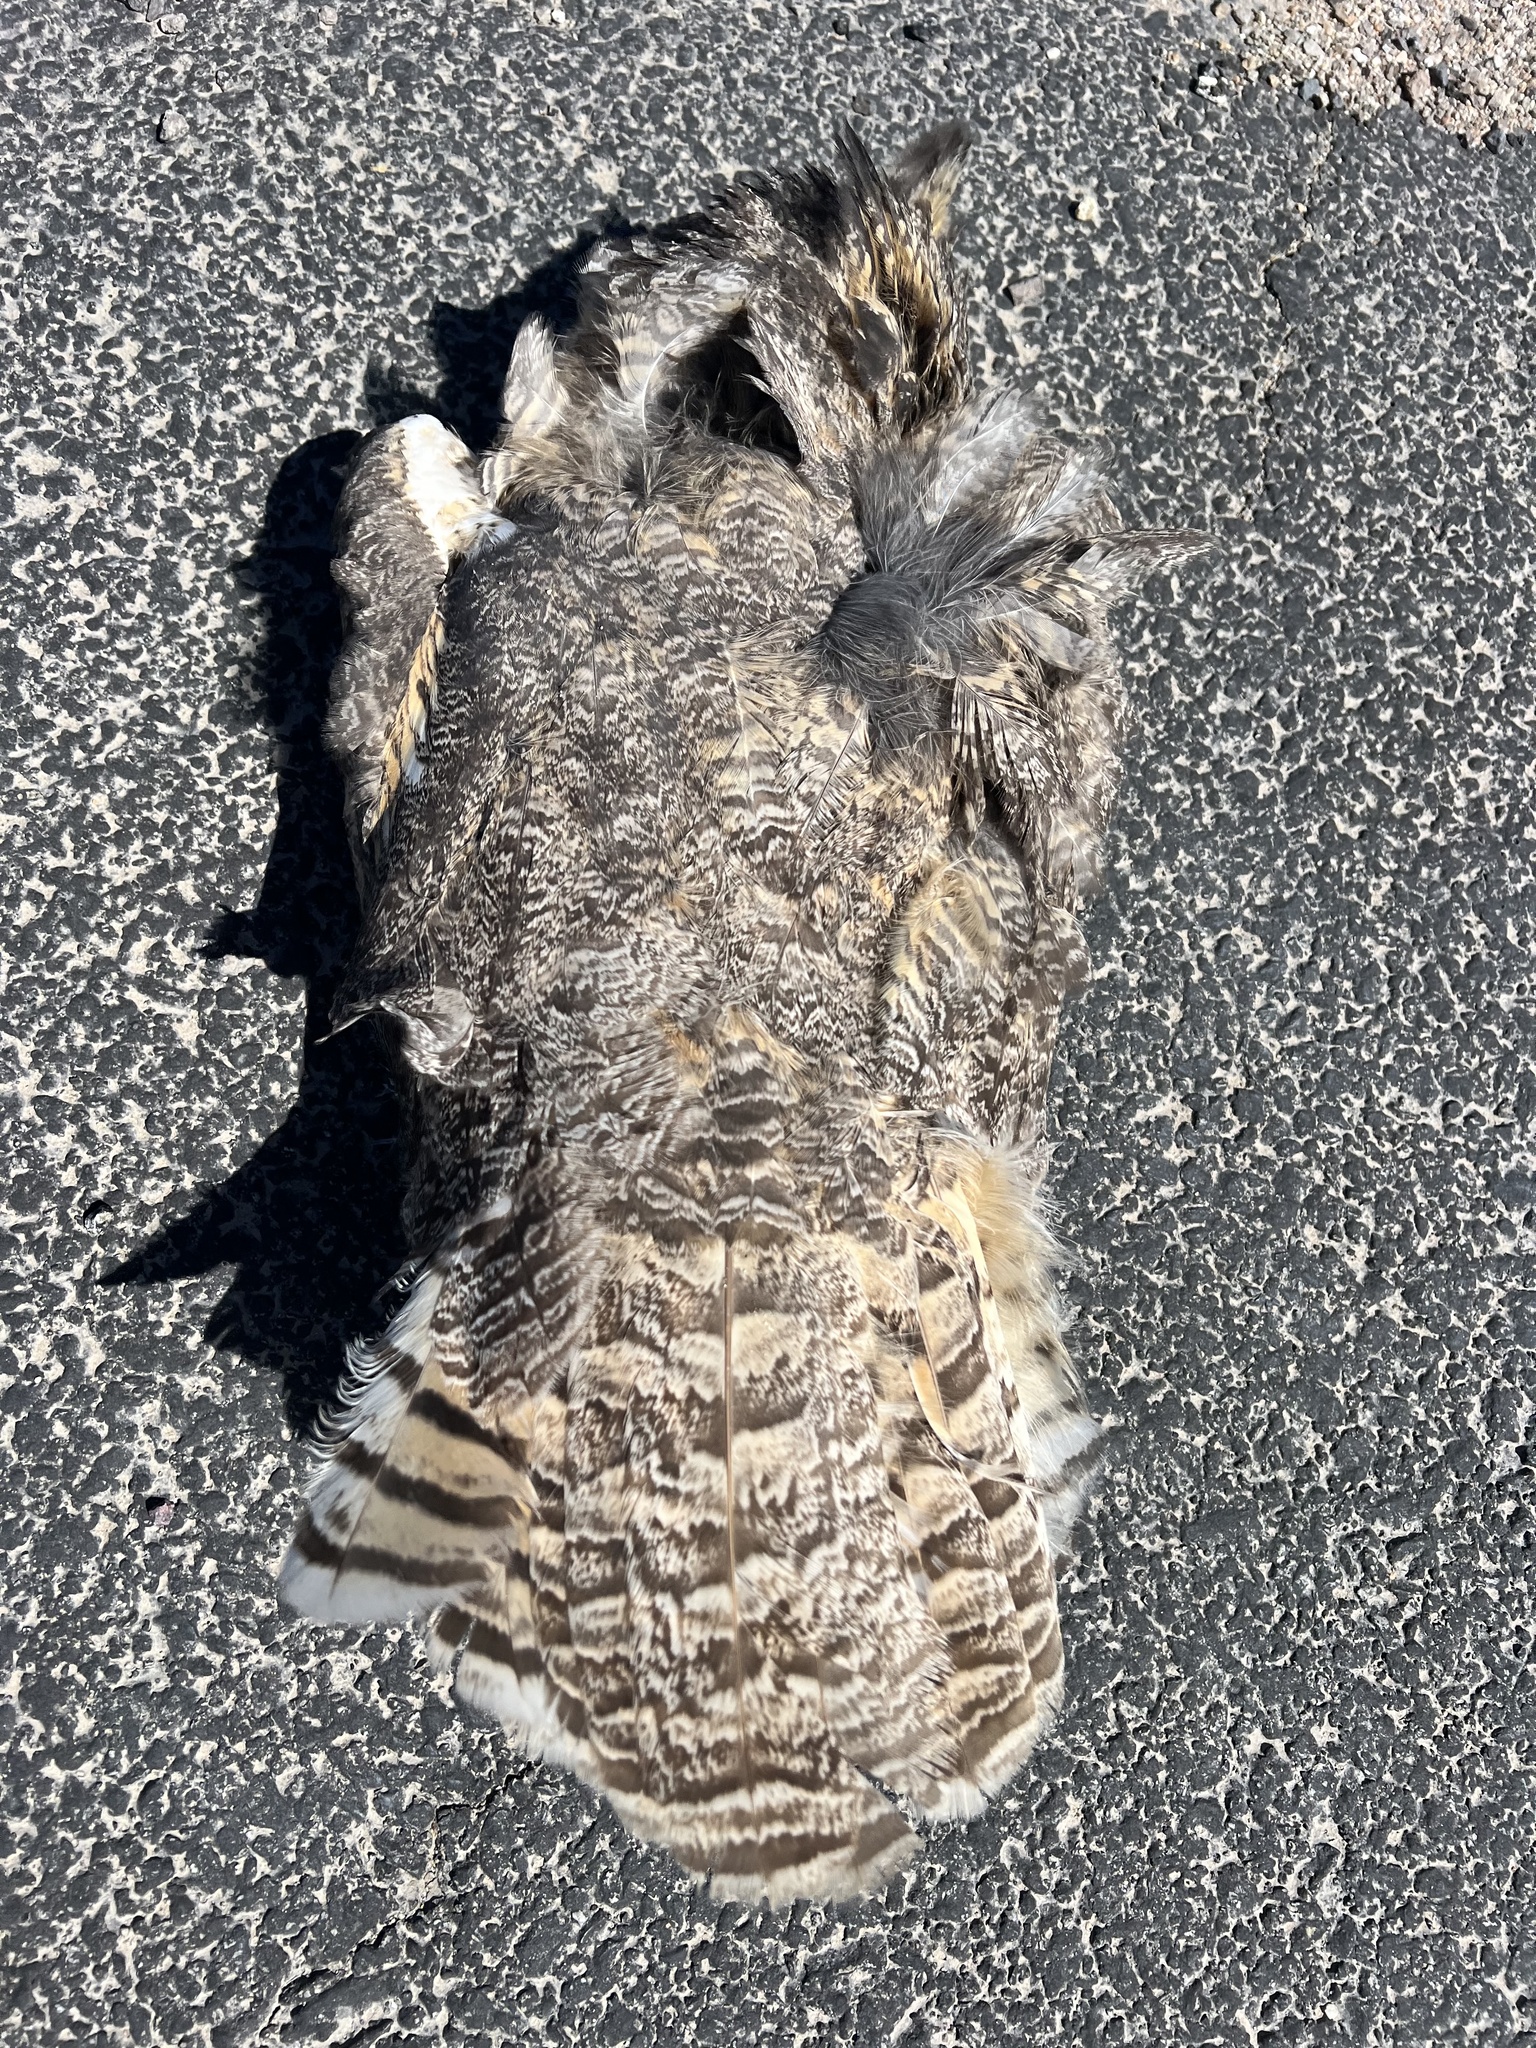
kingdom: Animalia
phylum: Chordata
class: Aves
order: Strigiformes
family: Strigidae
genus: Bubo
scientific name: Bubo virginianus
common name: Great horned owl
